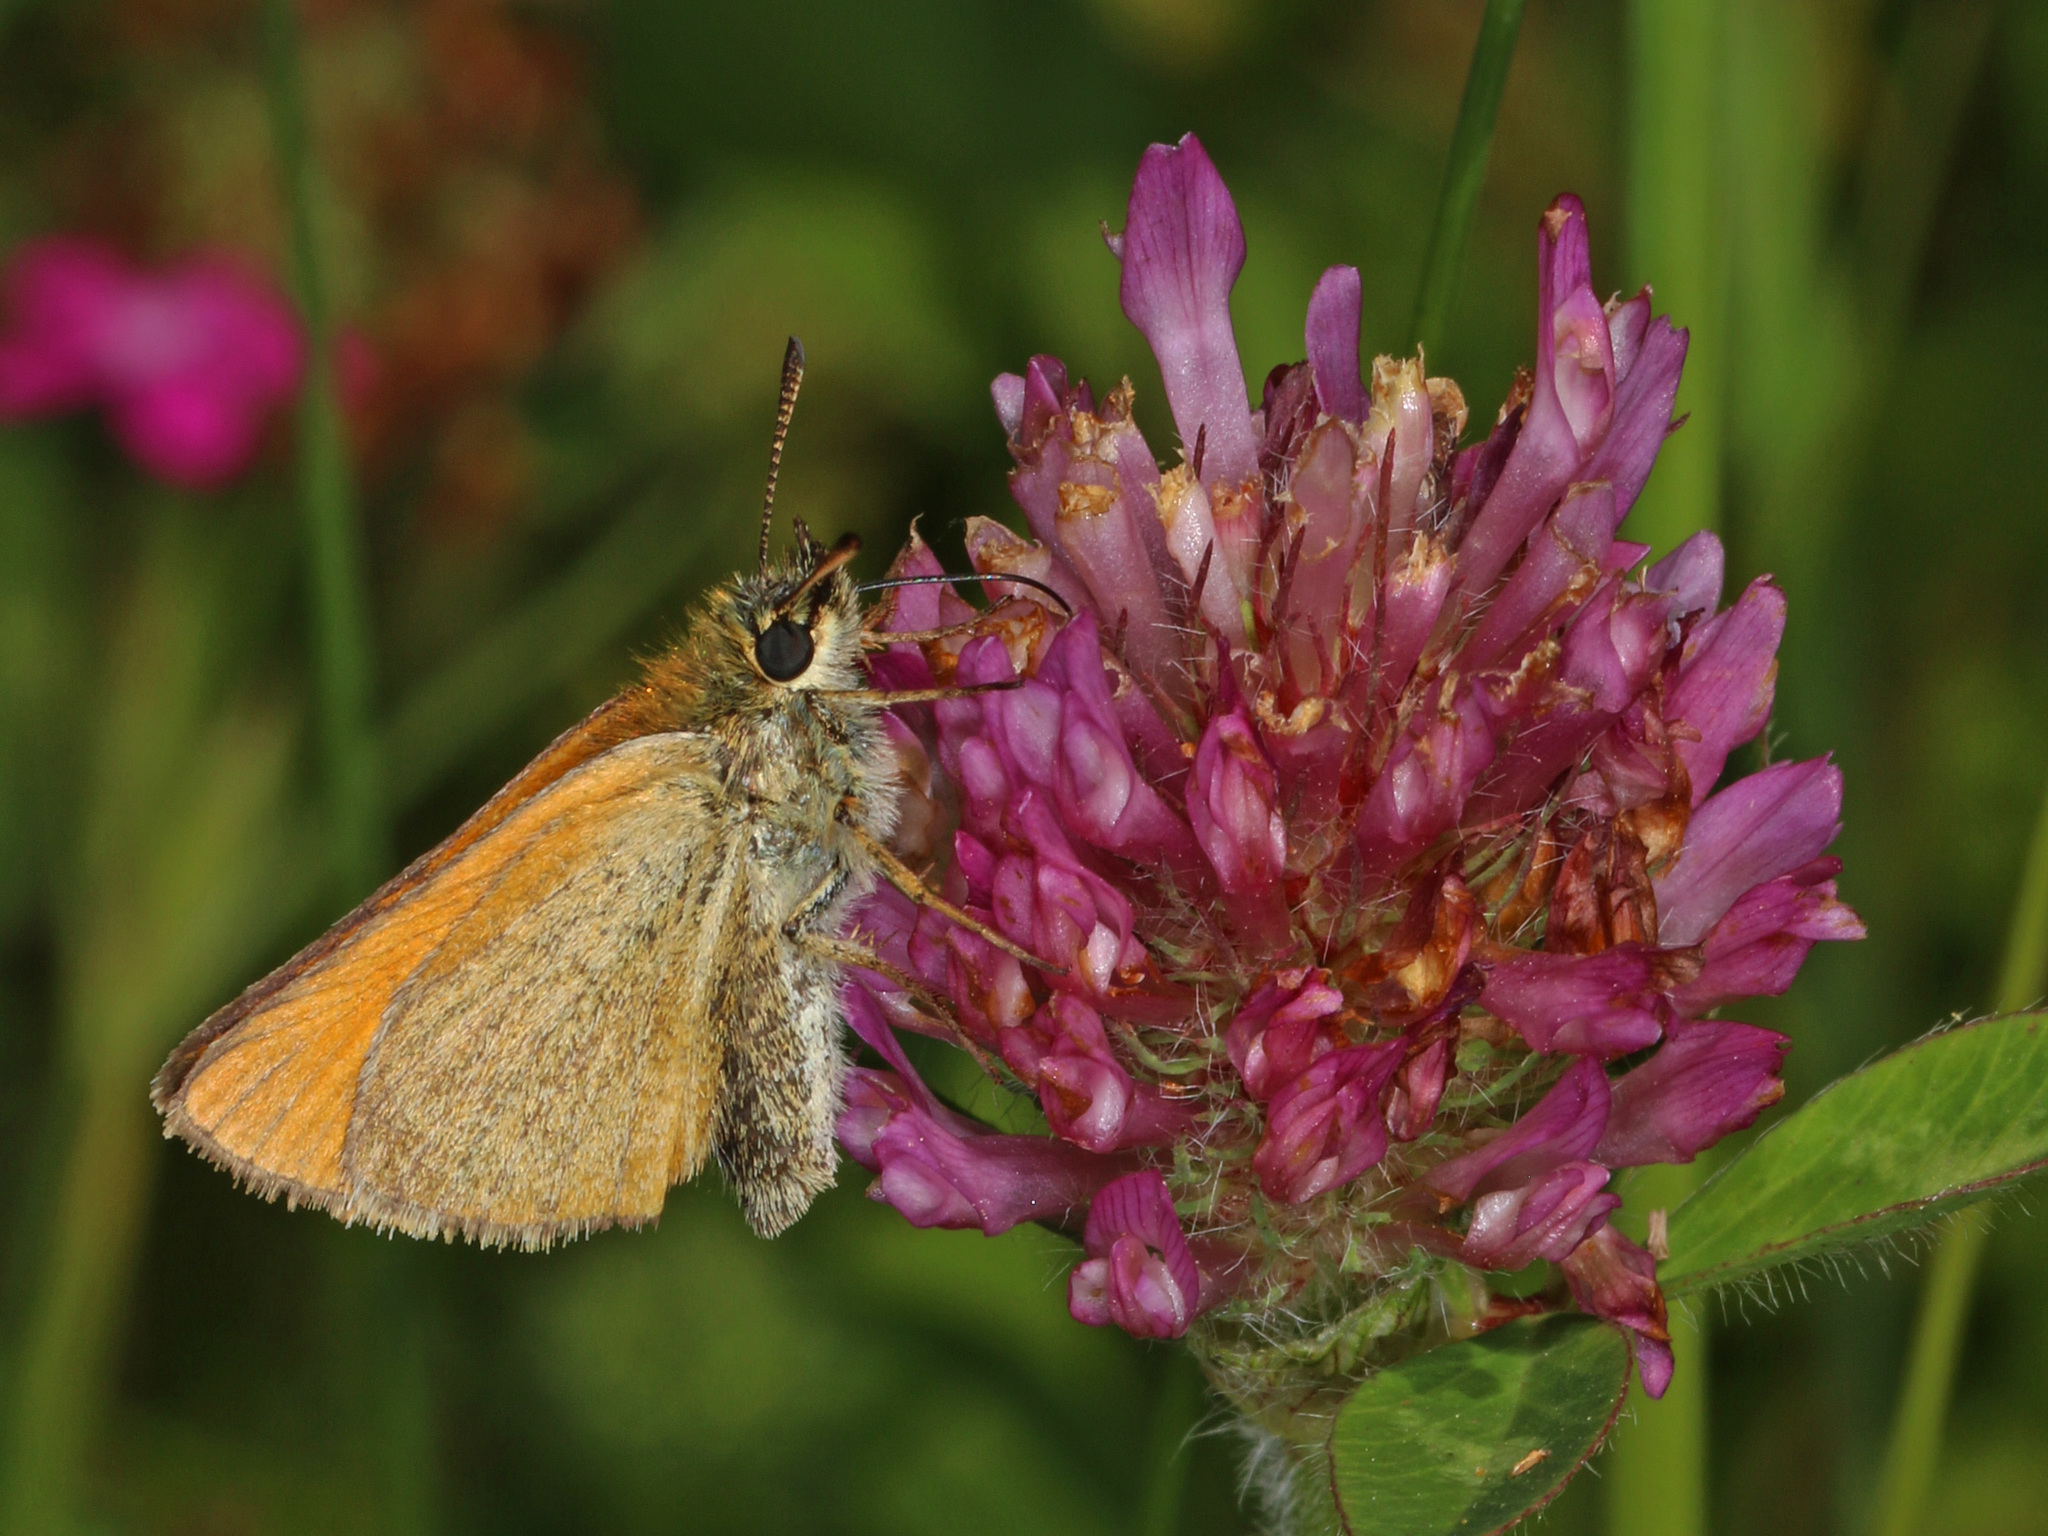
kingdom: Animalia
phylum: Arthropoda
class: Insecta
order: Lepidoptera
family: Hesperiidae
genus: Thymelicus
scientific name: Thymelicus lineola
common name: Essex skipper
